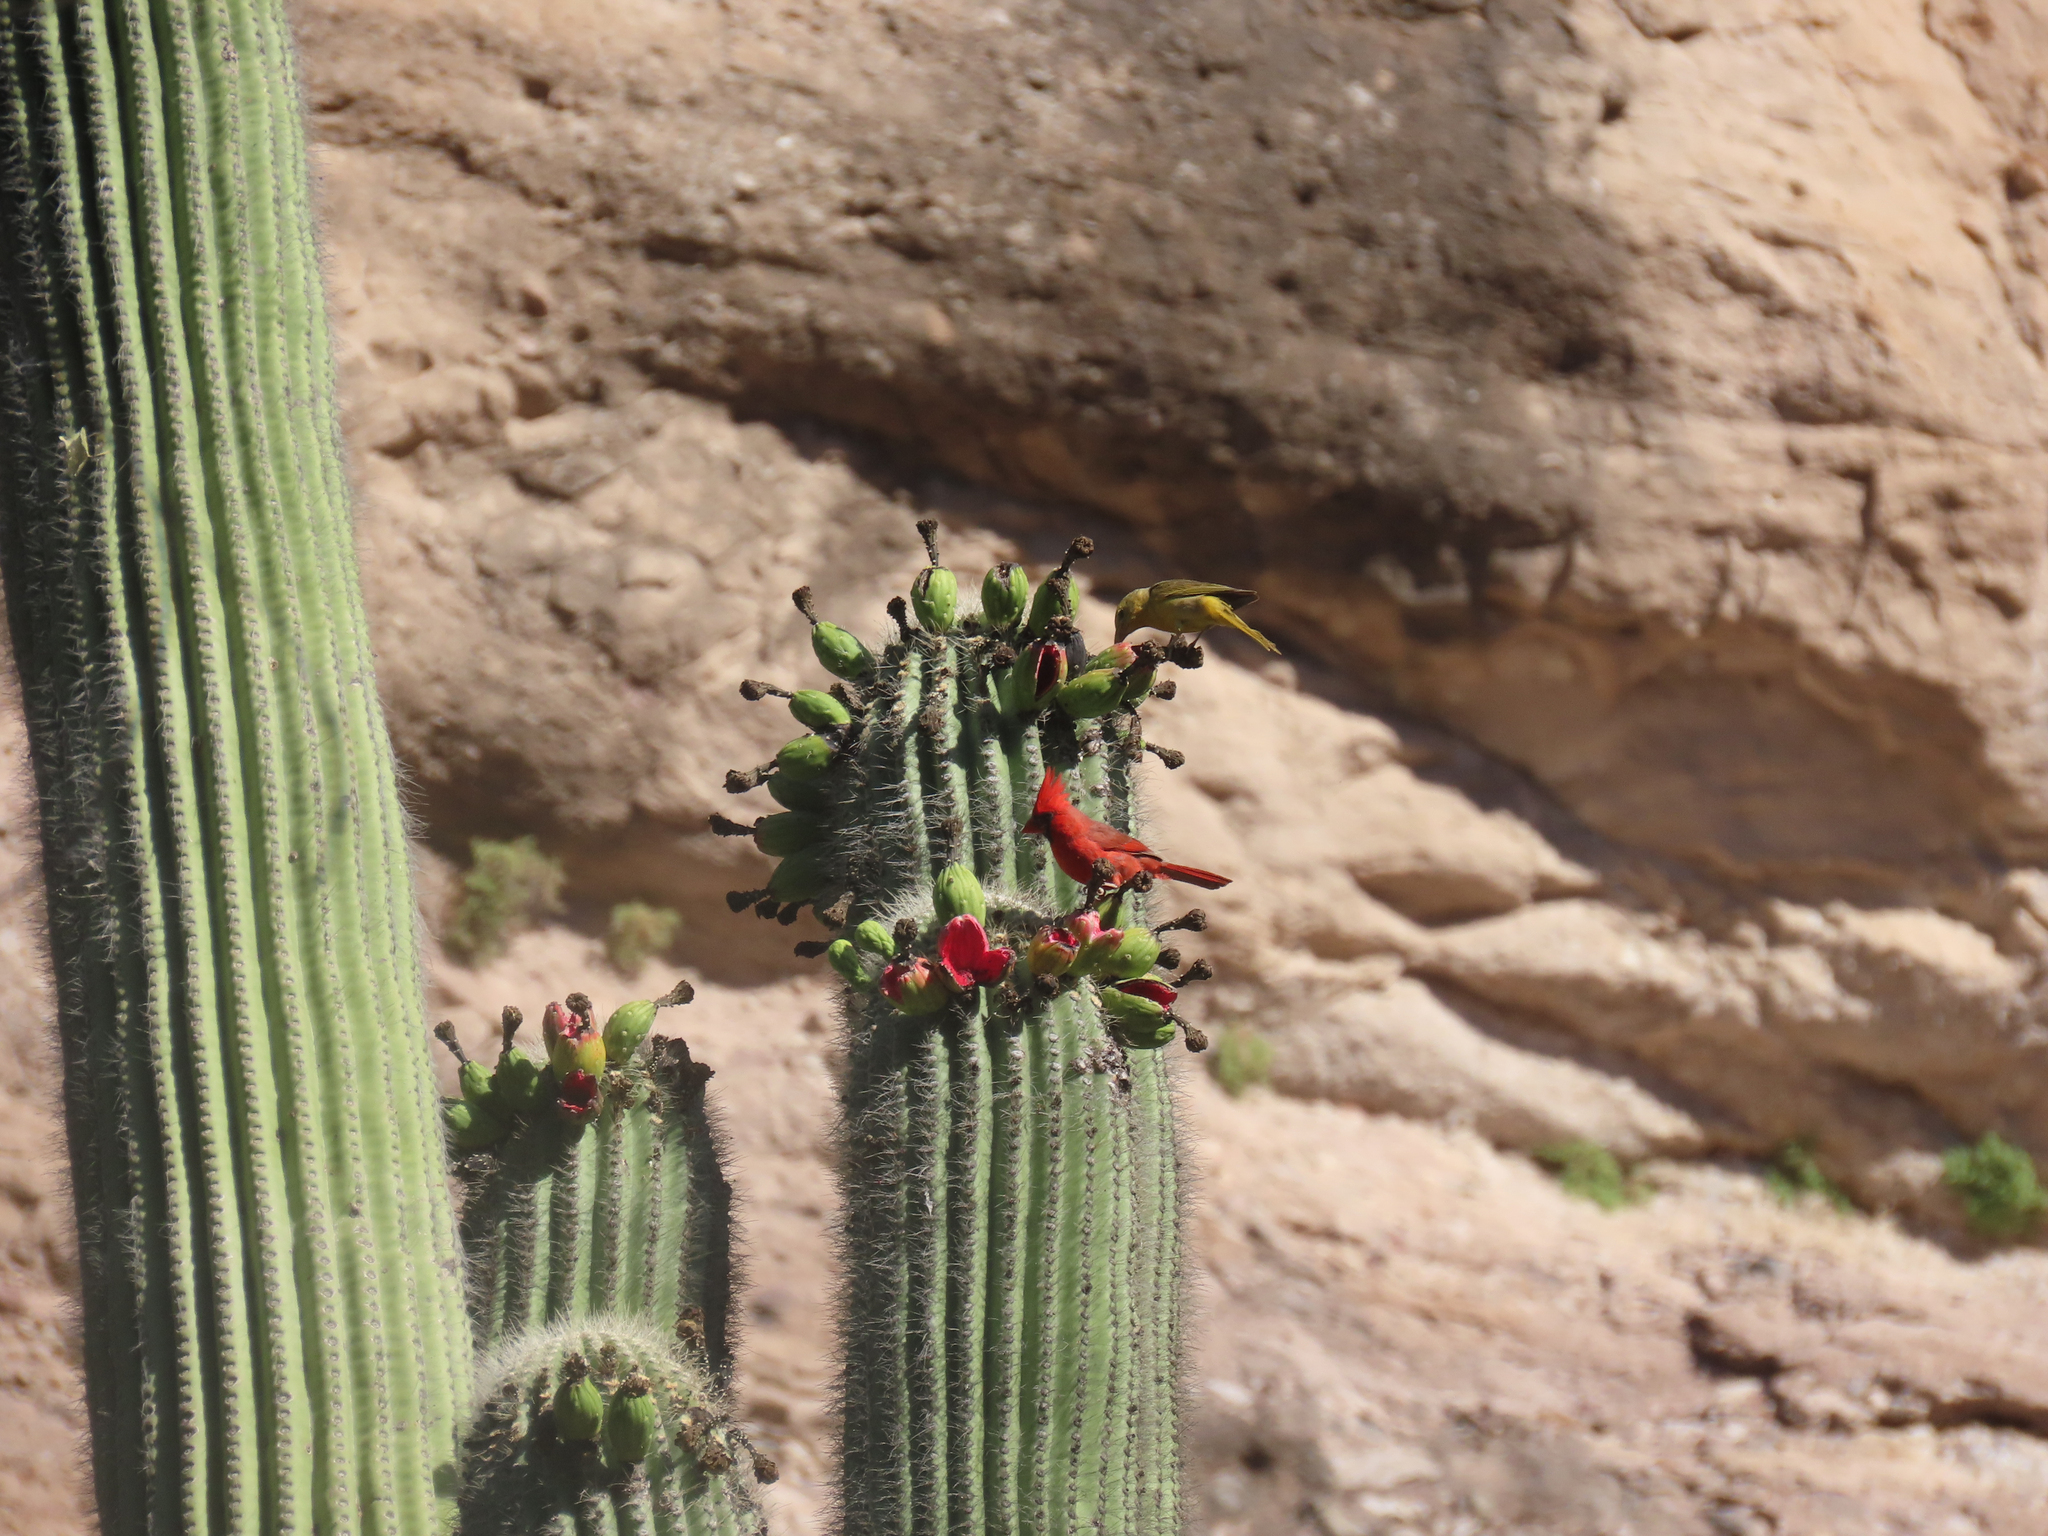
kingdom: Animalia
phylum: Chordata
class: Aves
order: Passeriformes
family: Cardinalidae
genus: Piranga
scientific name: Piranga rubra
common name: Summer tanager
